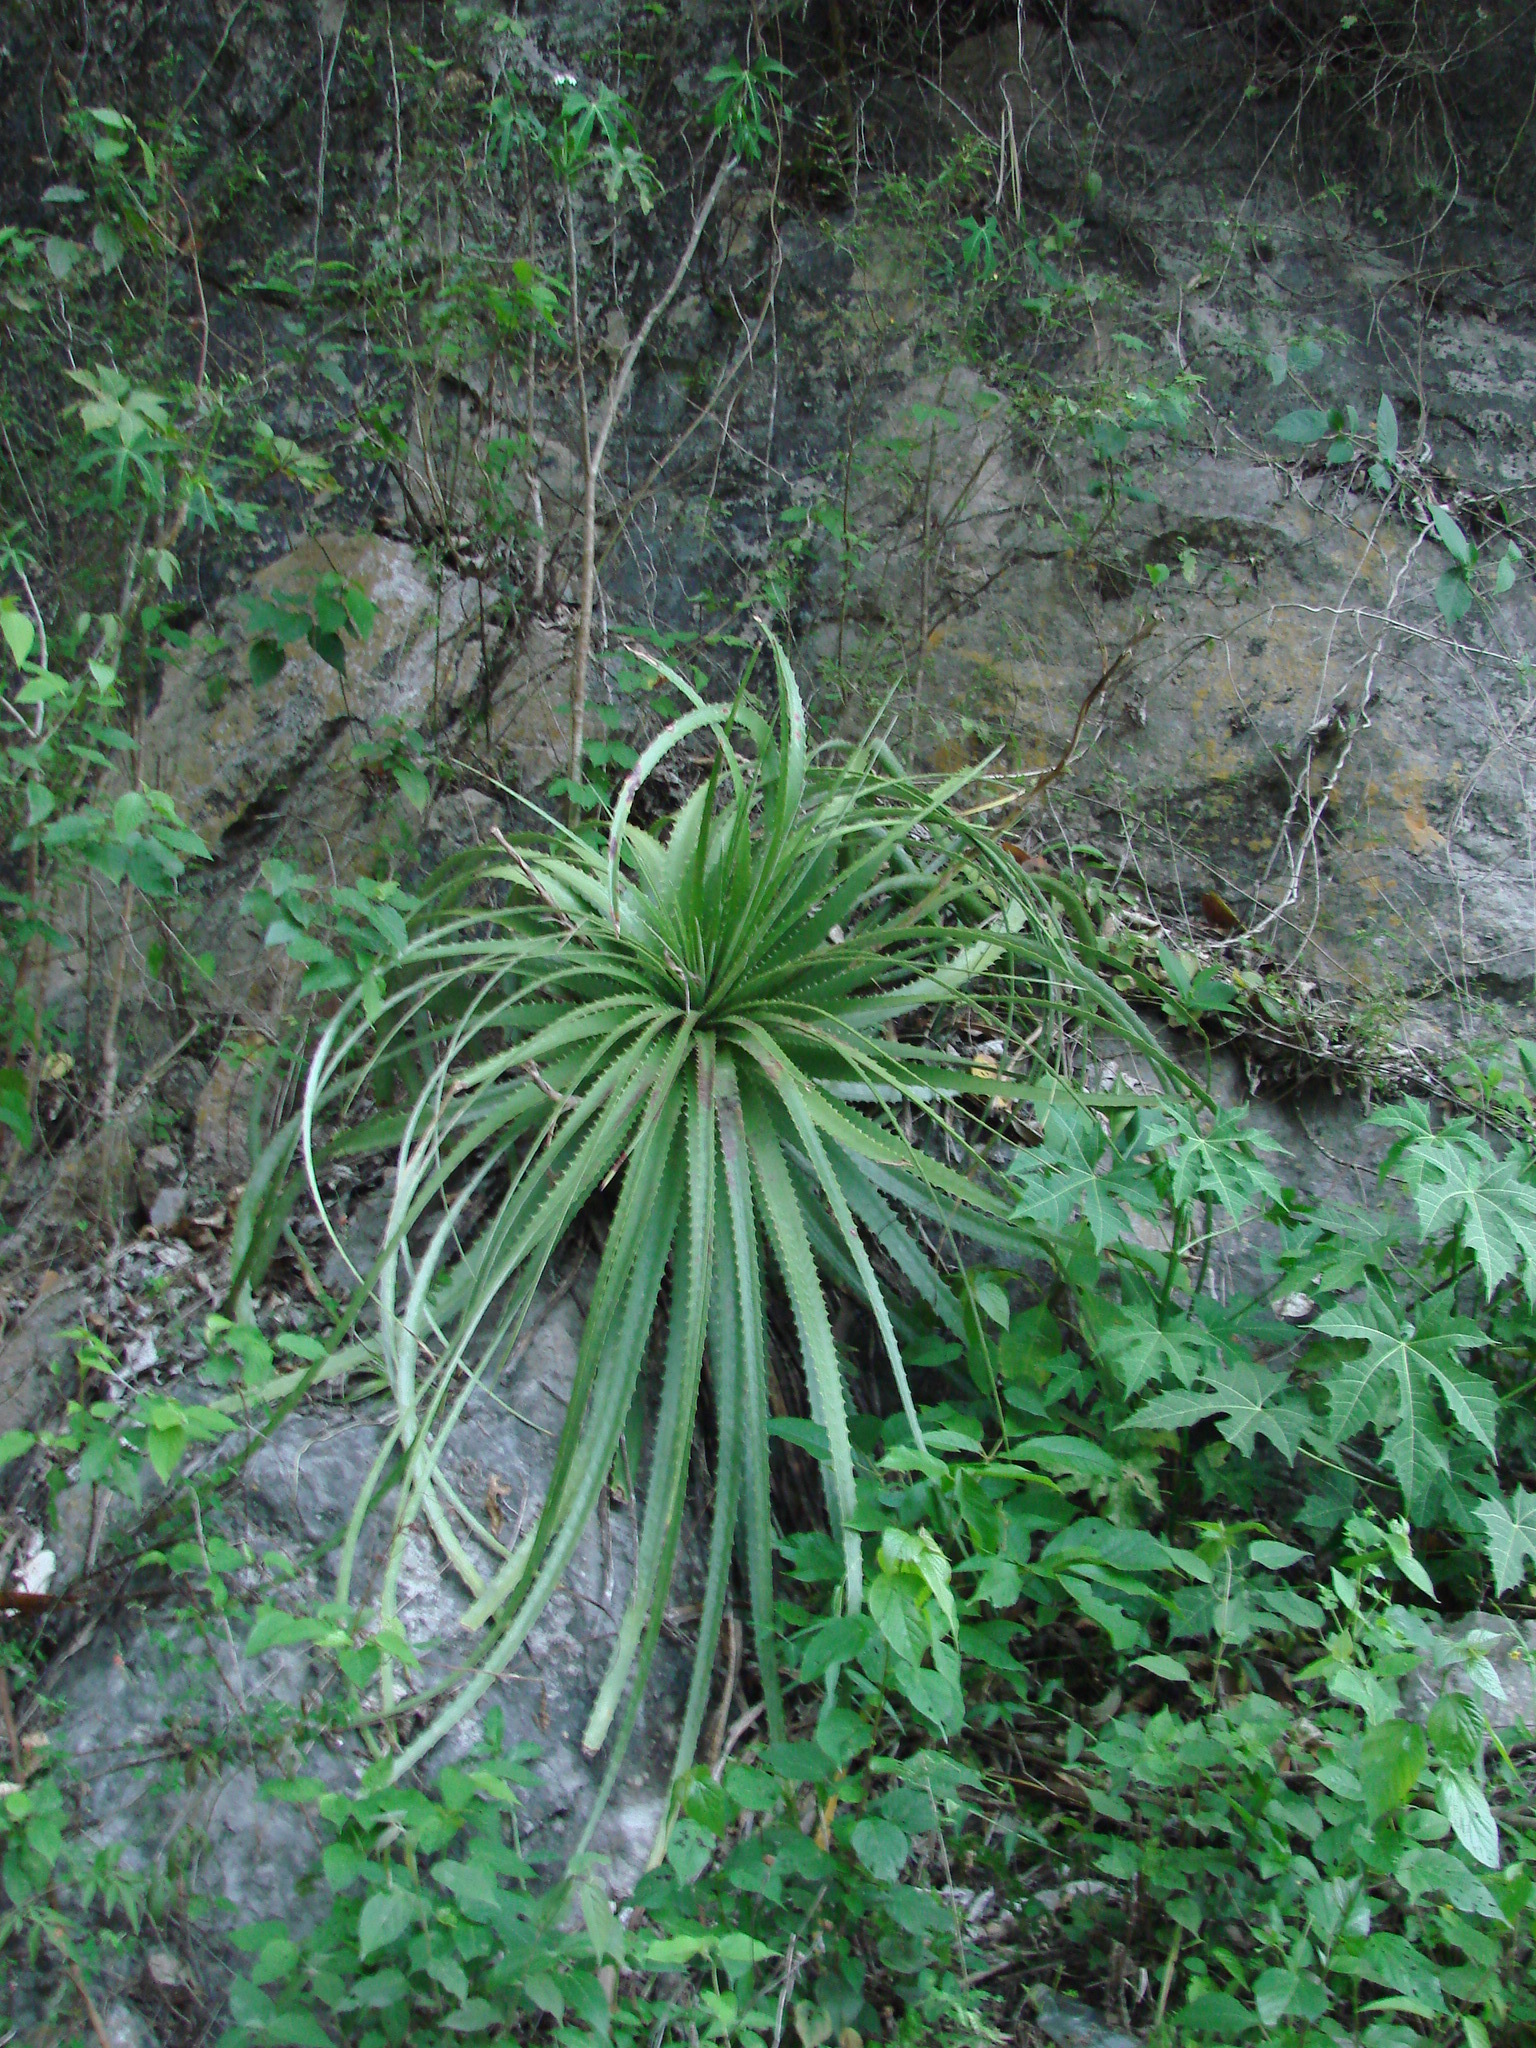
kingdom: Plantae
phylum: Tracheophyta
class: Liliopsida
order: Poales
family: Bromeliaceae
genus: Hechtia
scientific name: Hechtia glomerata
